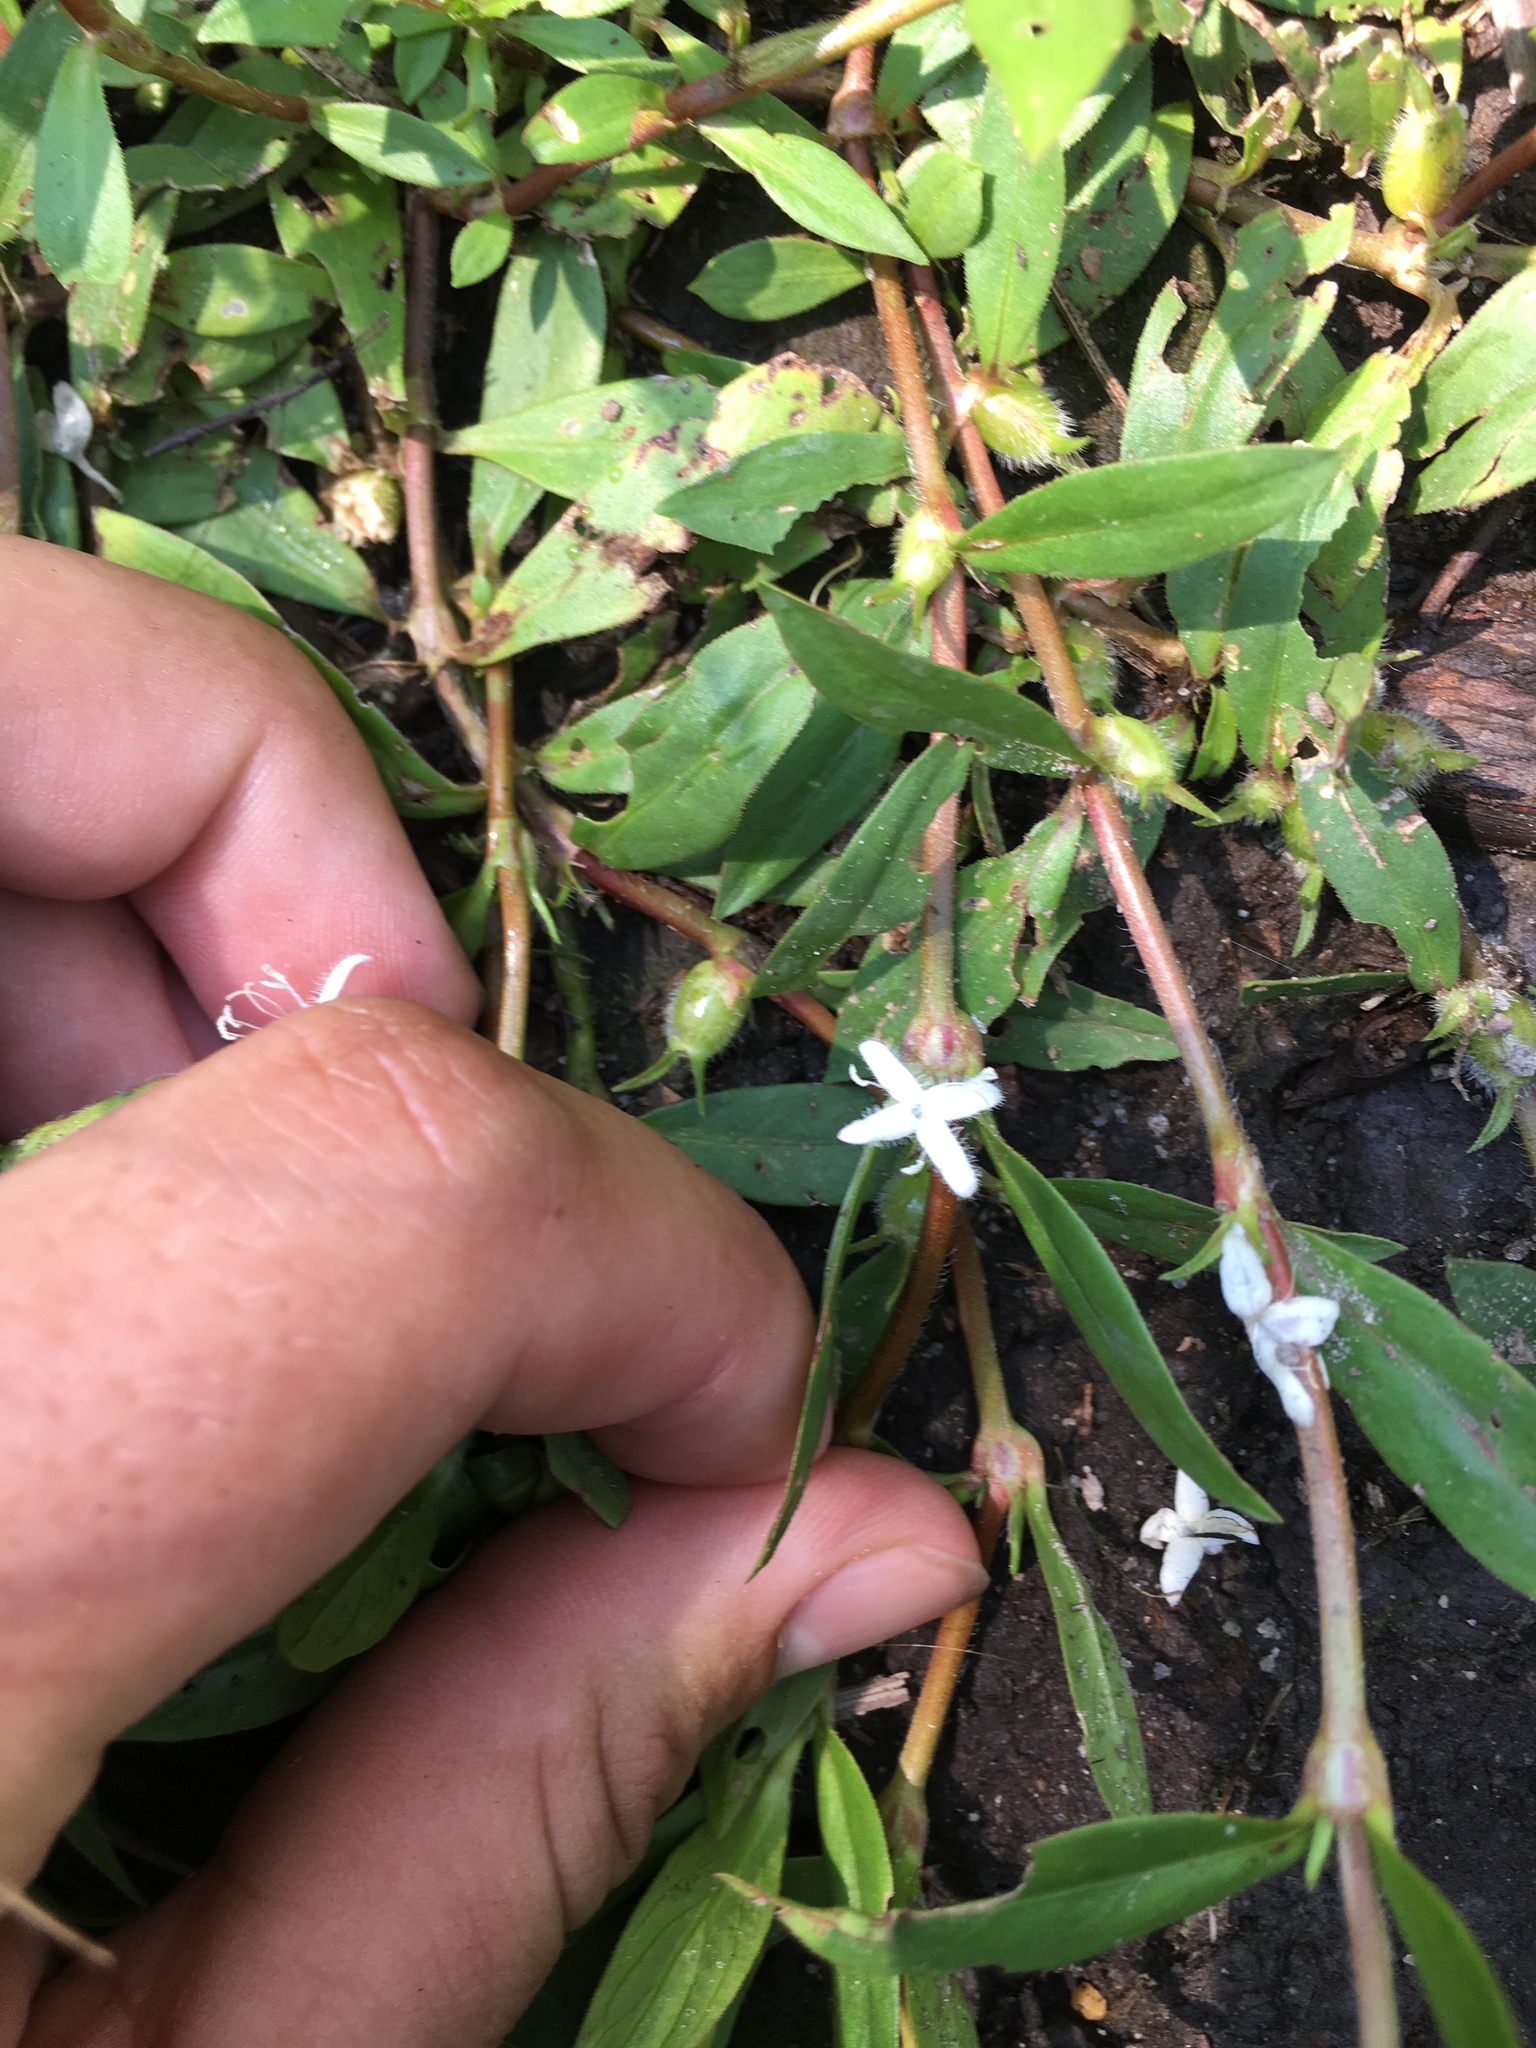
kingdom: Plantae
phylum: Tracheophyta
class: Magnoliopsida
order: Gentianales
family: Rubiaceae
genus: Diodia
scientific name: Diodia virginiana
